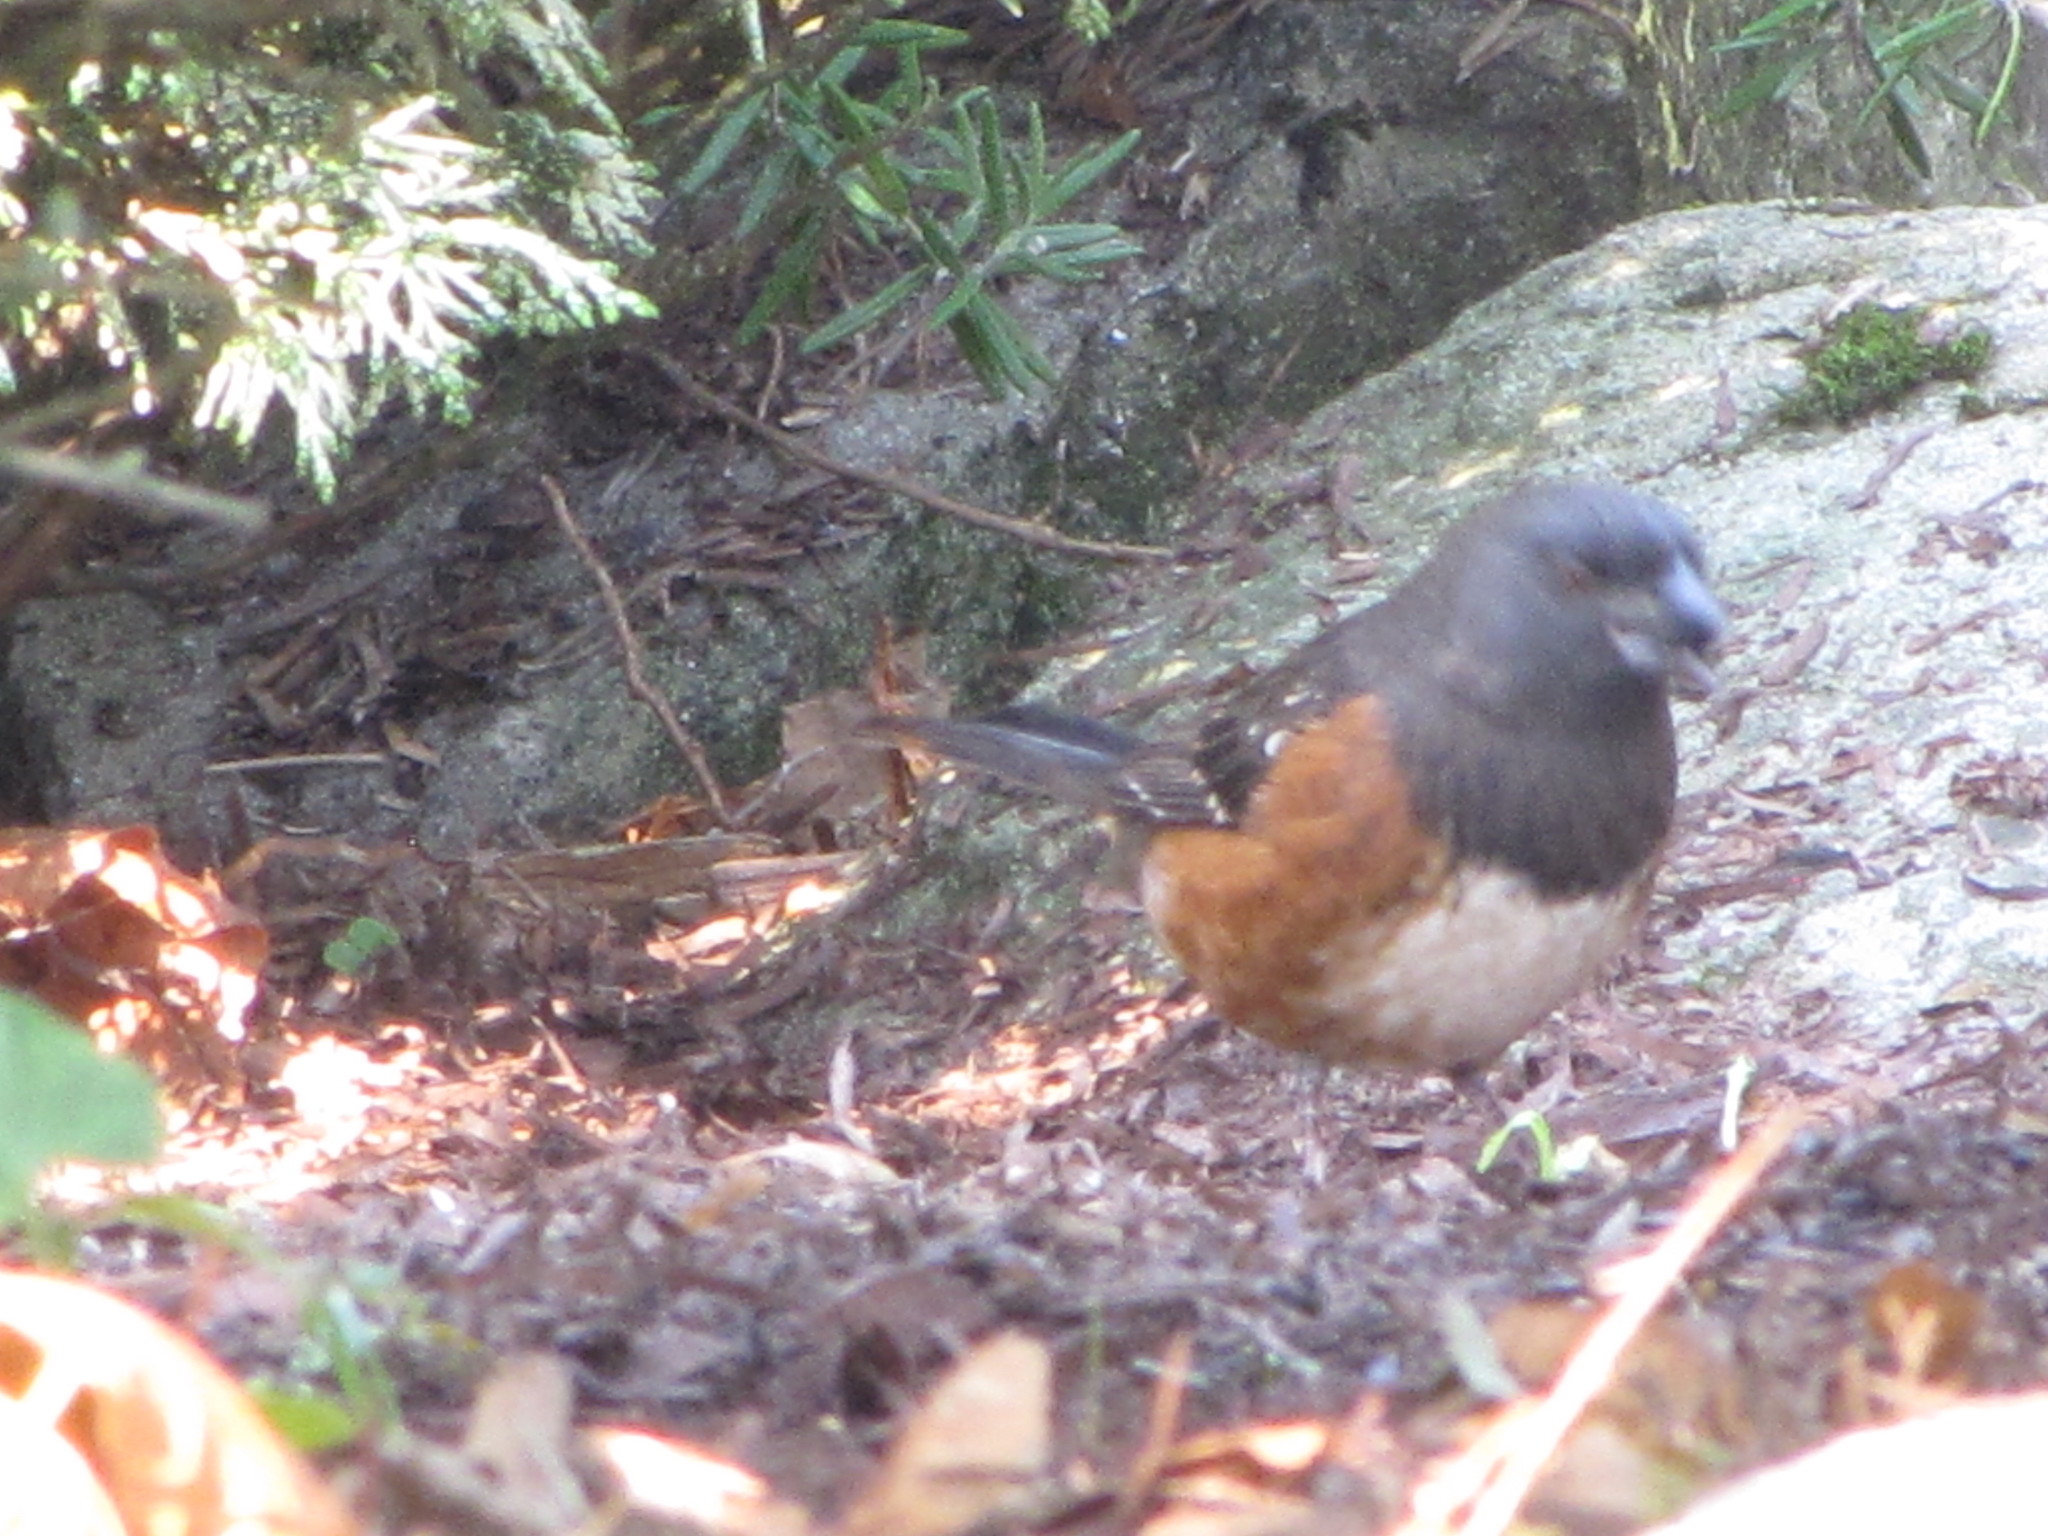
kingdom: Animalia
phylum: Chordata
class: Aves
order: Passeriformes
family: Passerellidae
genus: Pipilo
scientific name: Pipilo maculatus
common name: Spotted towhee
